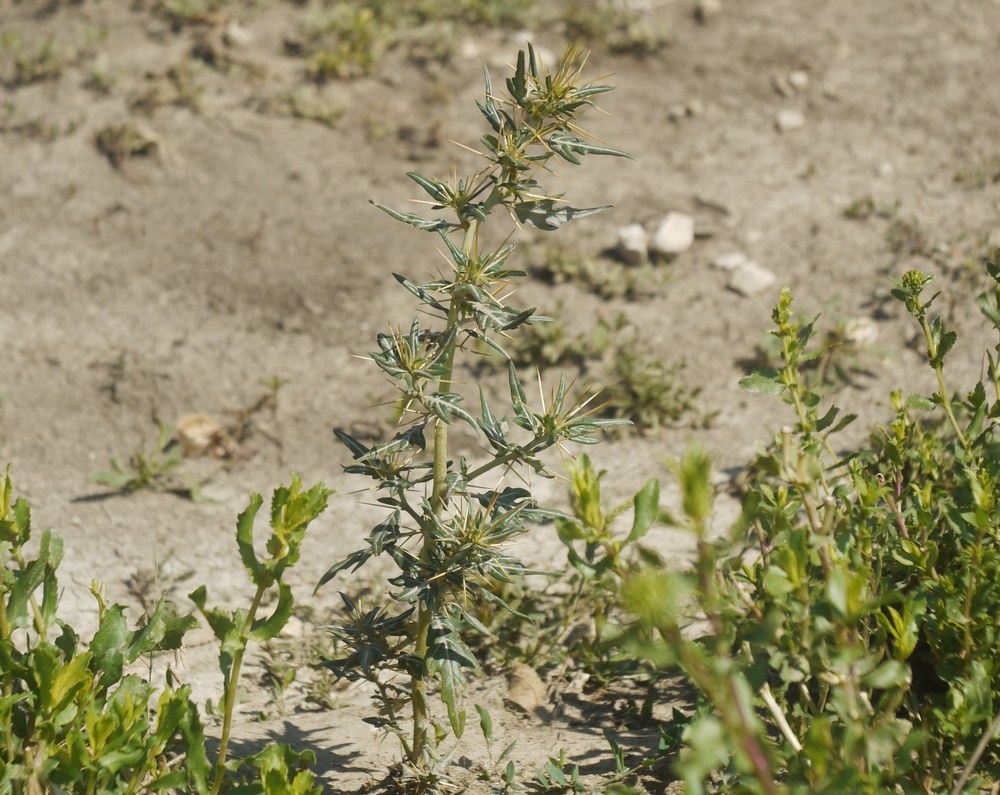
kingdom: Plantae
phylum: Tracheophyta
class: Magnoliopsida
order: Asterales
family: Asteraceae
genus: Xanthium
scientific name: Xanthium spinosum
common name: Spiny cocklebur
